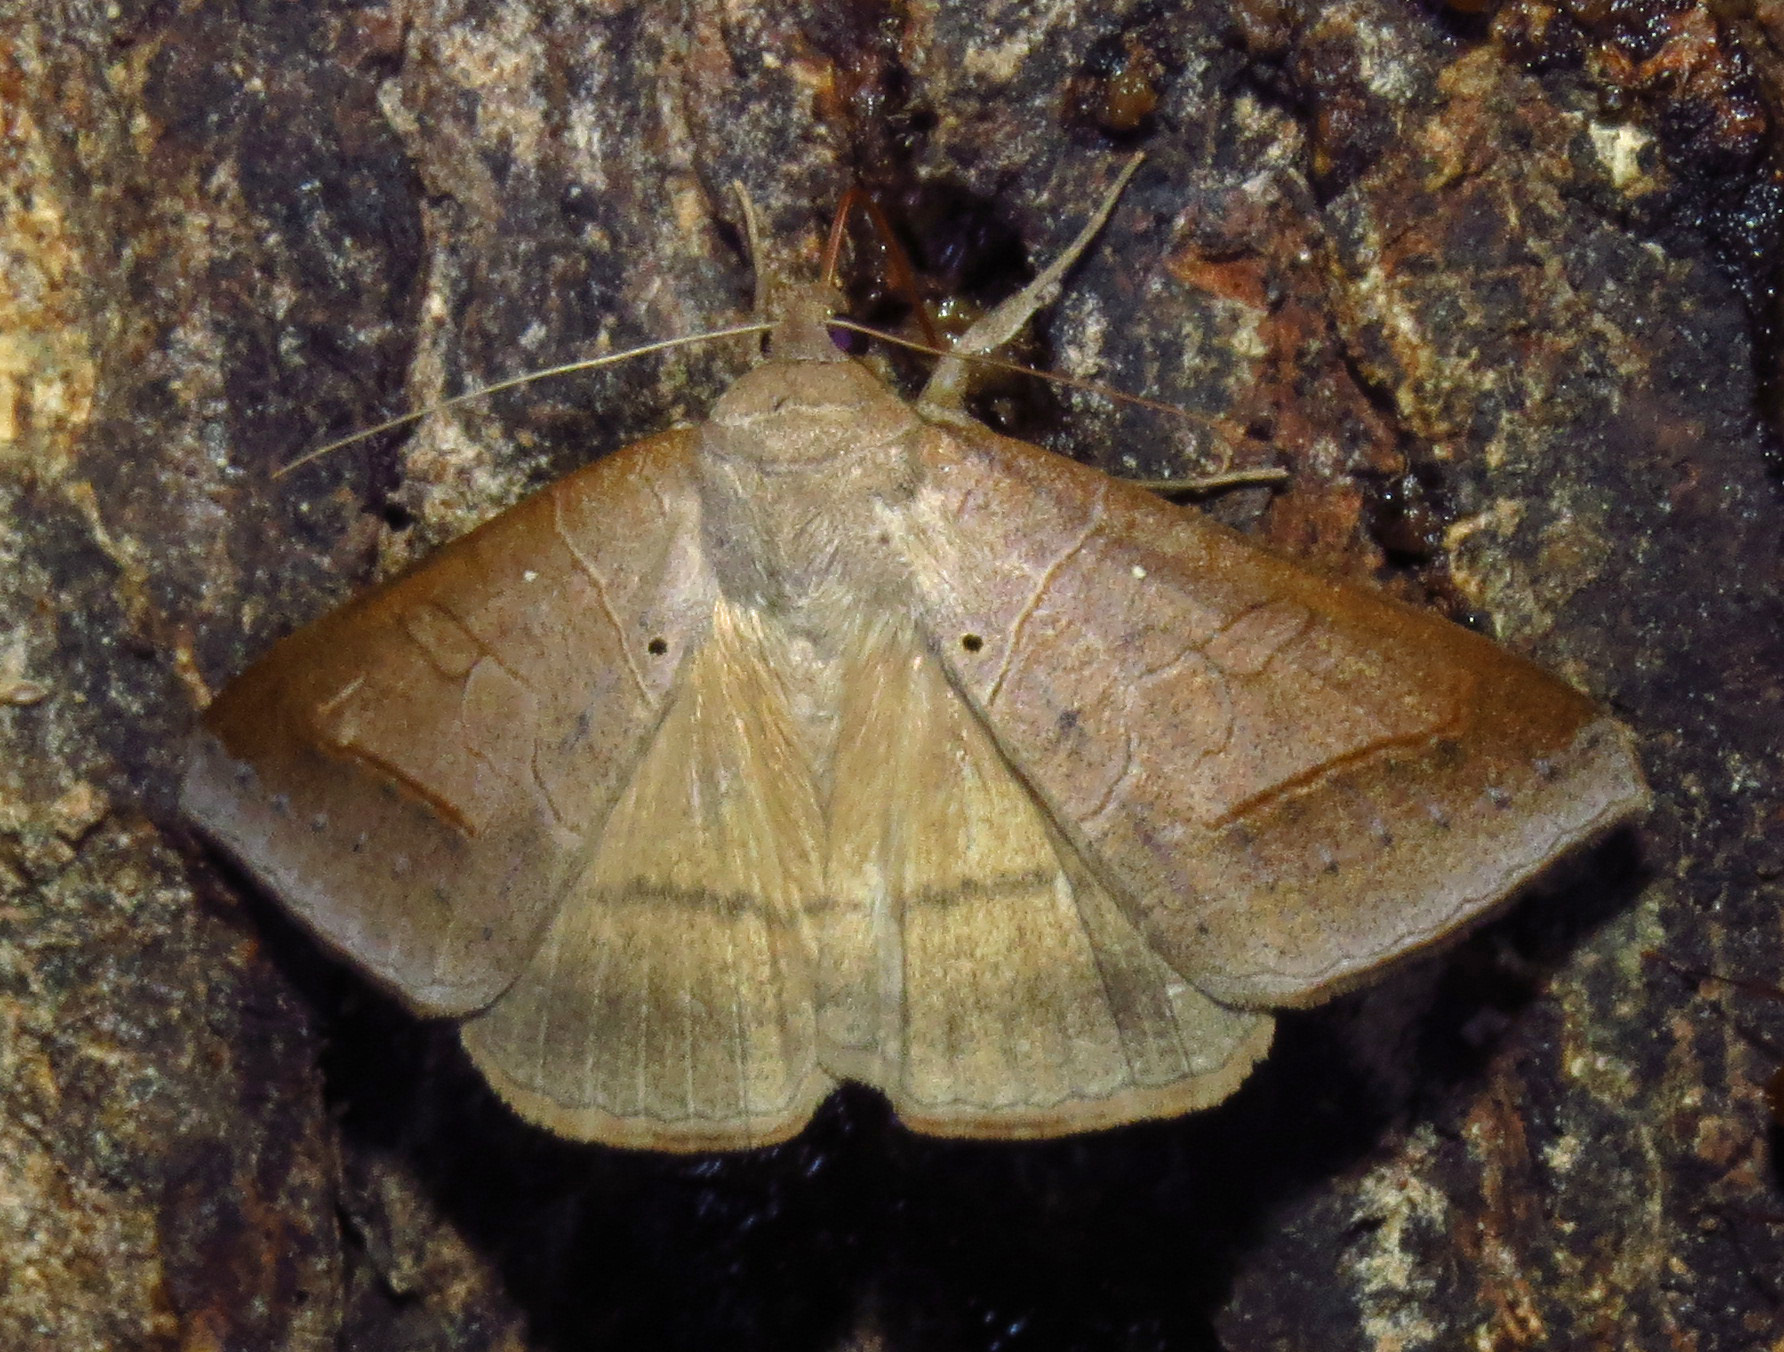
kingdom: Animalia
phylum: Arthropoda
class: Insecta
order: Lepidoptera
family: Erebidae
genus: Mocis
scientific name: Mocis marcida
